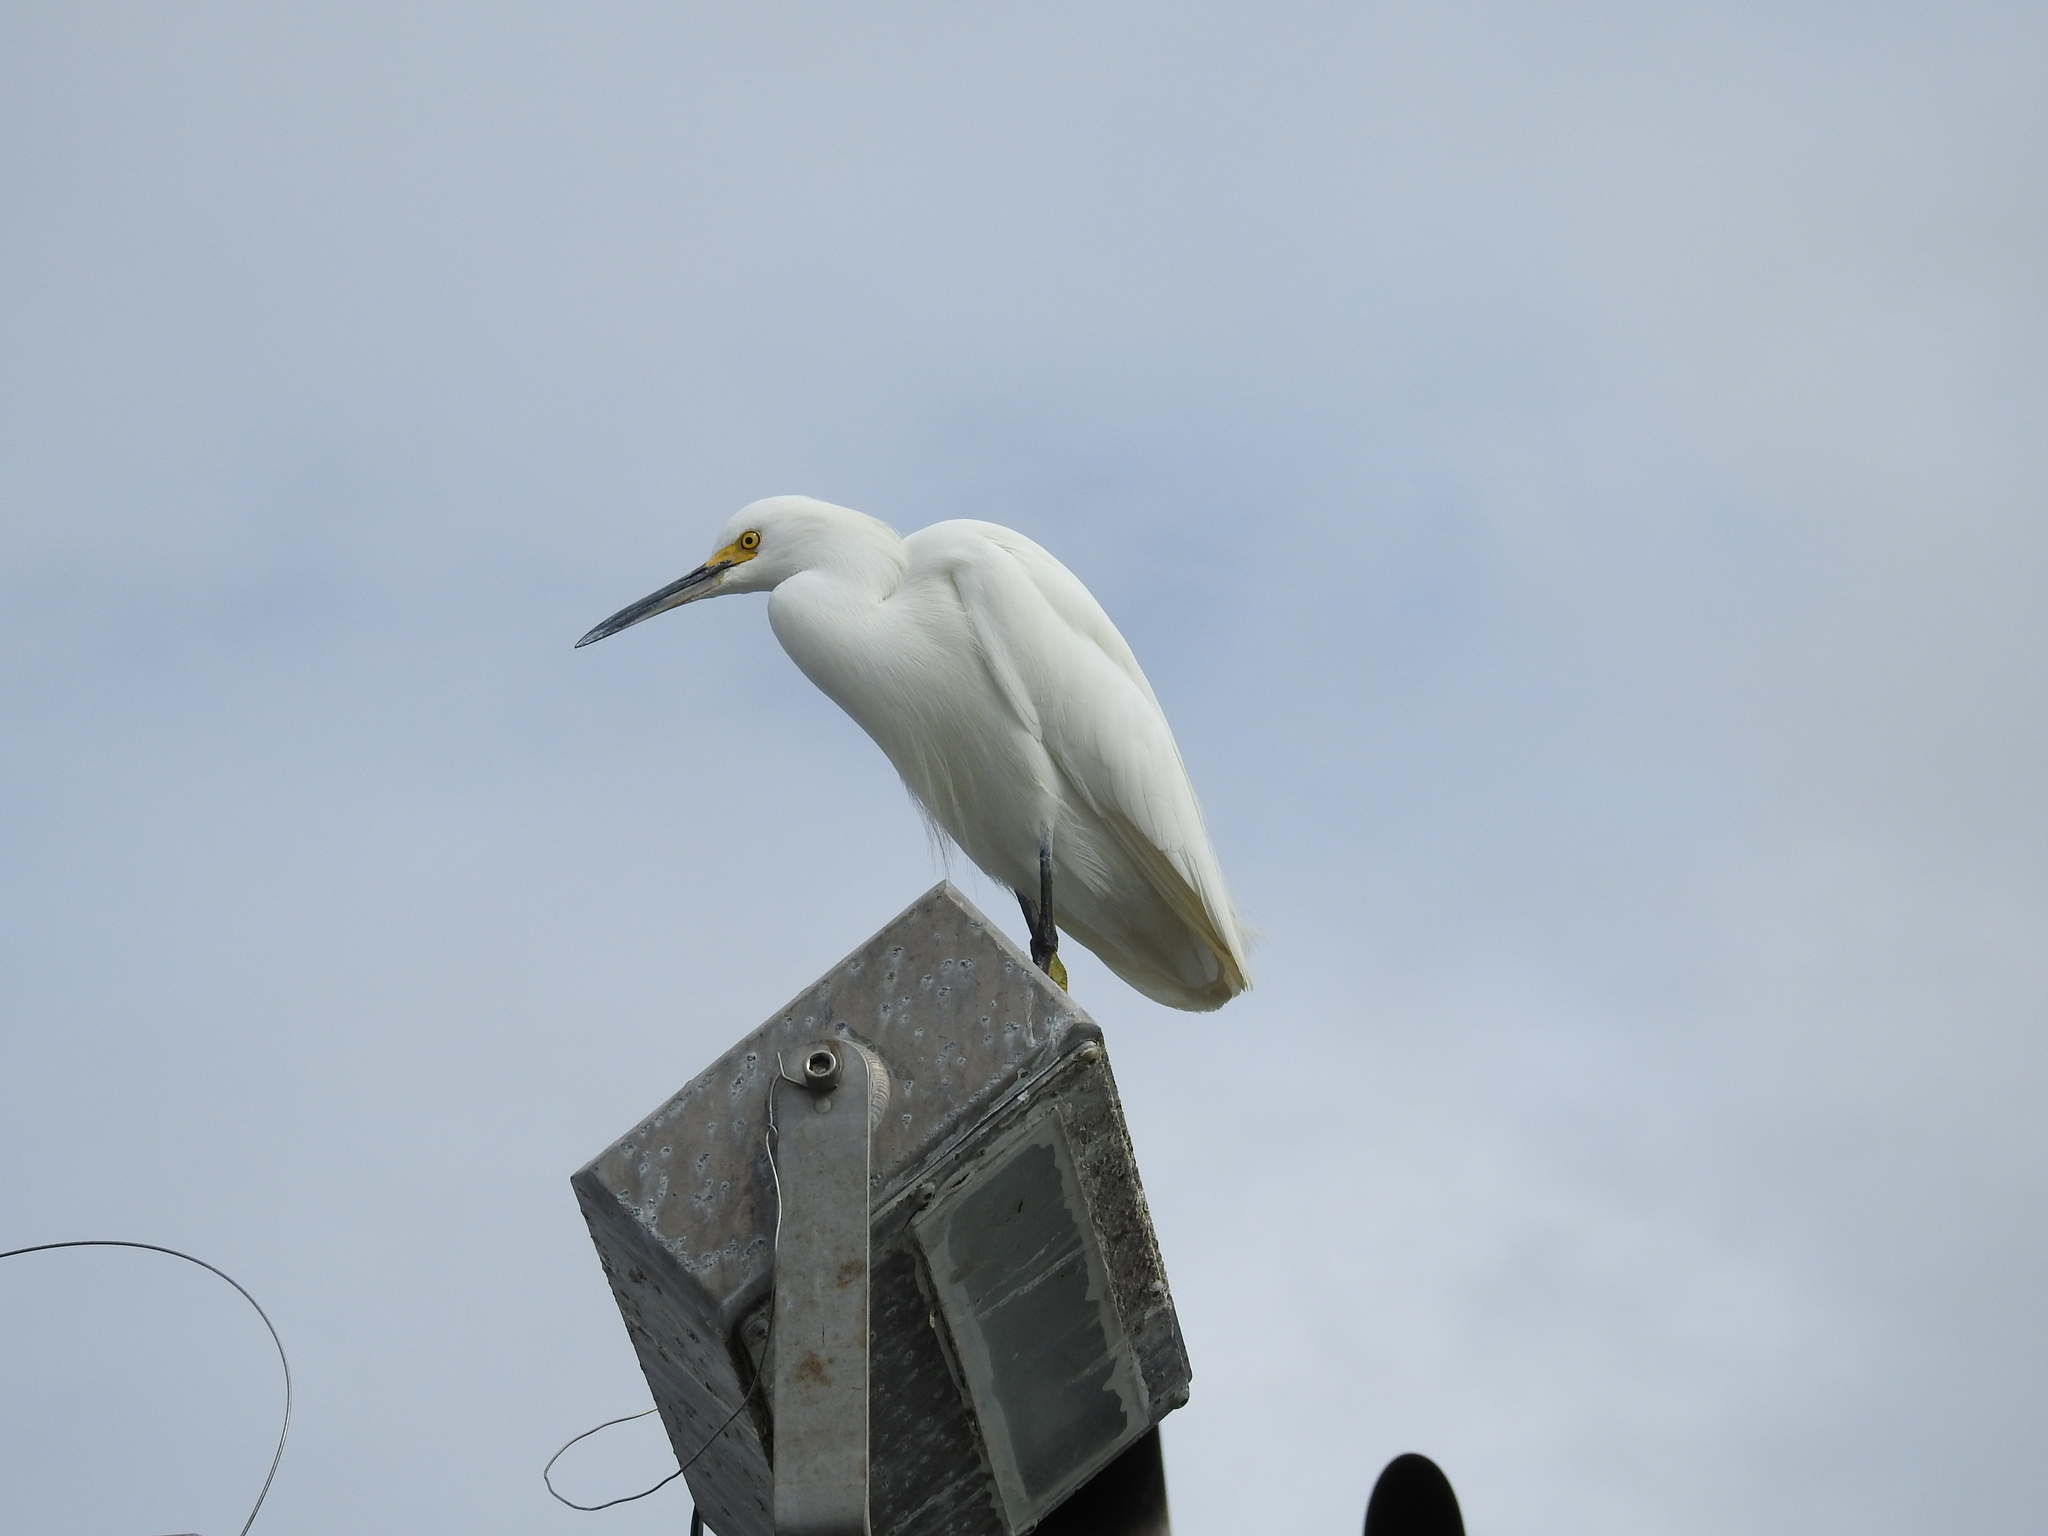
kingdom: Animalia
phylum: Chordata
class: Aves
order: Pelecaniformes
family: Ardeidae
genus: Egretta
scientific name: Egretta thula
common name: Snowy egret
